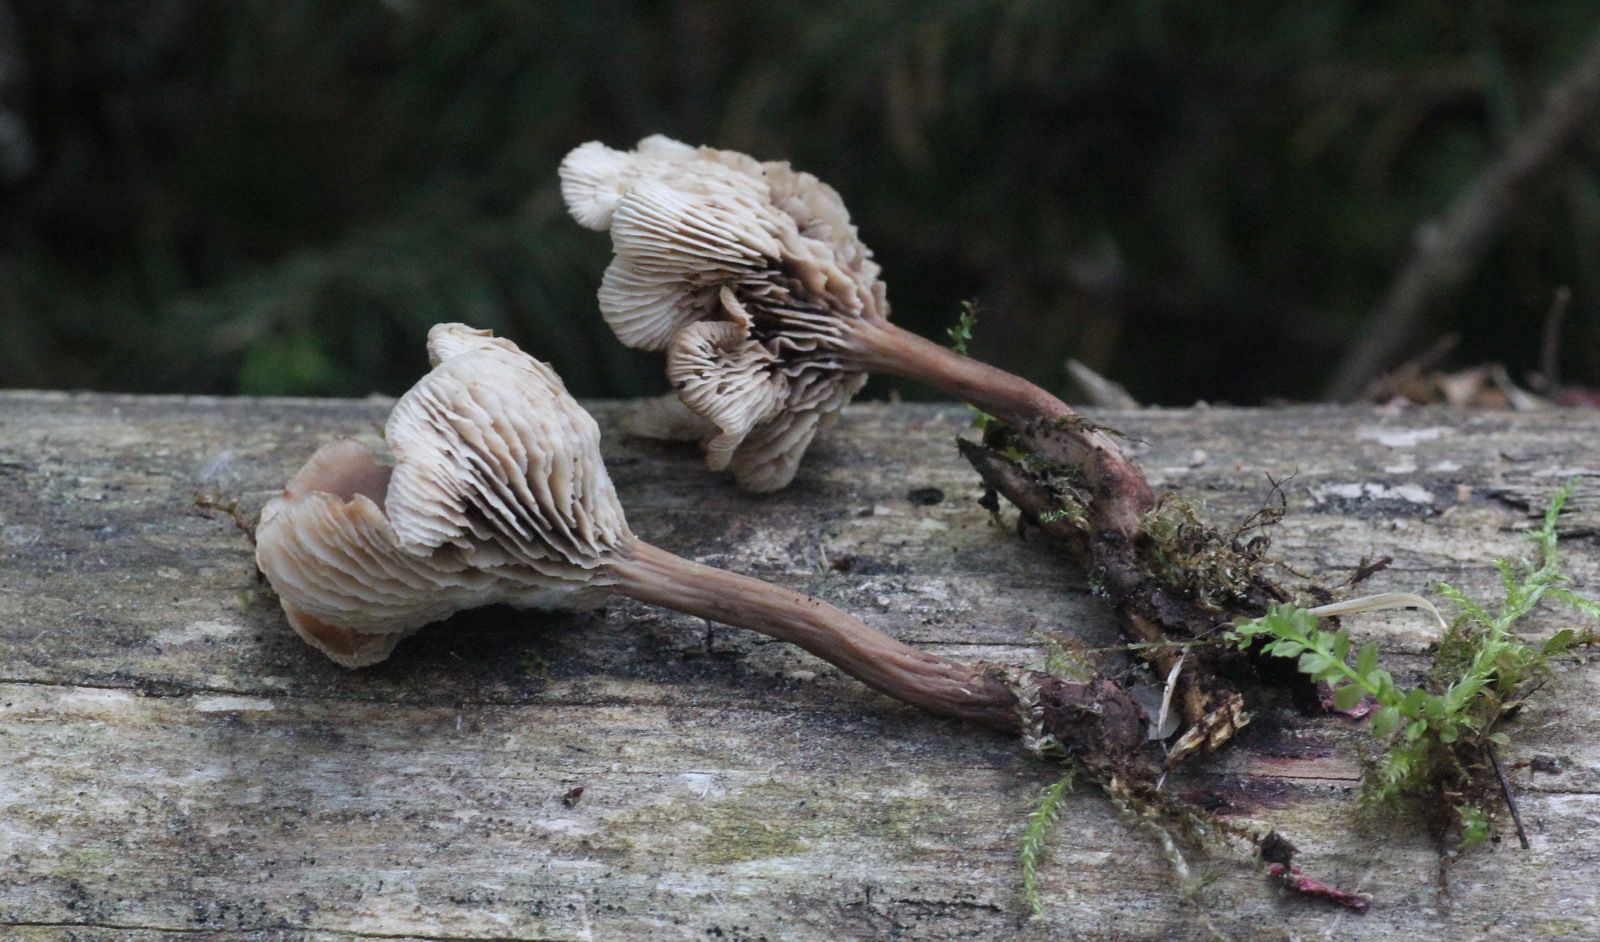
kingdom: Fungi
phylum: Basidiomycota
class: Agaricomycetes
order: Russulales
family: Auriscalpiaceae
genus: Lentinellus
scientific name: Lentinellus micheneri
